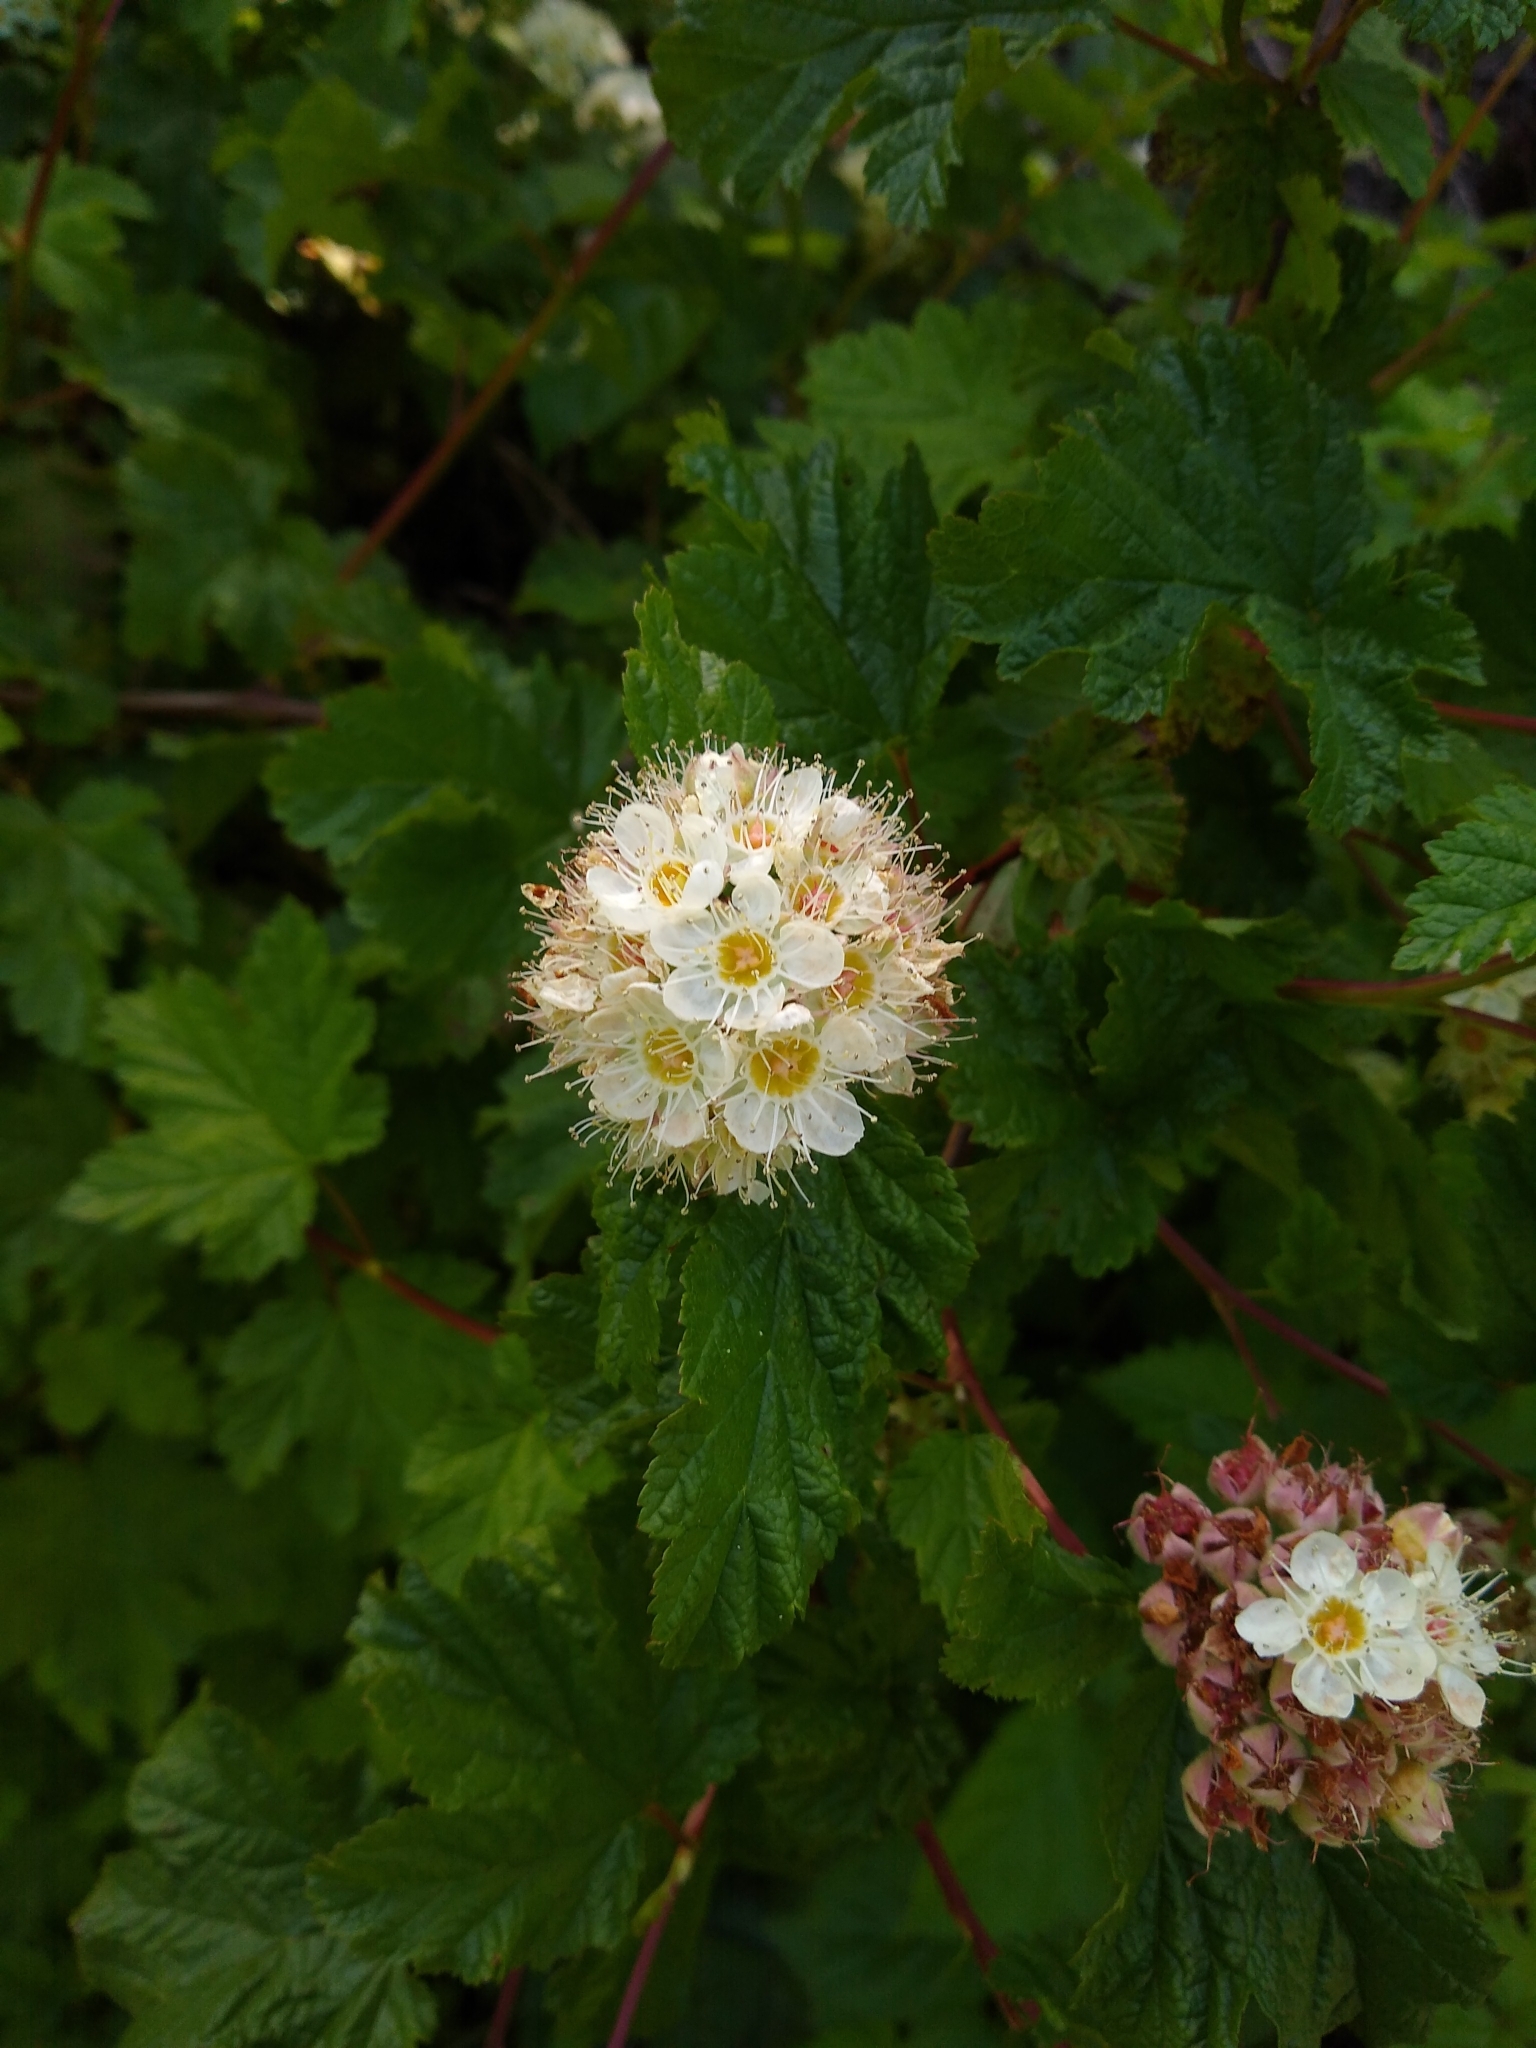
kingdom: Plantae
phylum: Tracheophyta
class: Magnoliopsida
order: Rosales
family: Rosaceae
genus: Physocarpus
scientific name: Physocarpus capitatus
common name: Pacific ninebark
